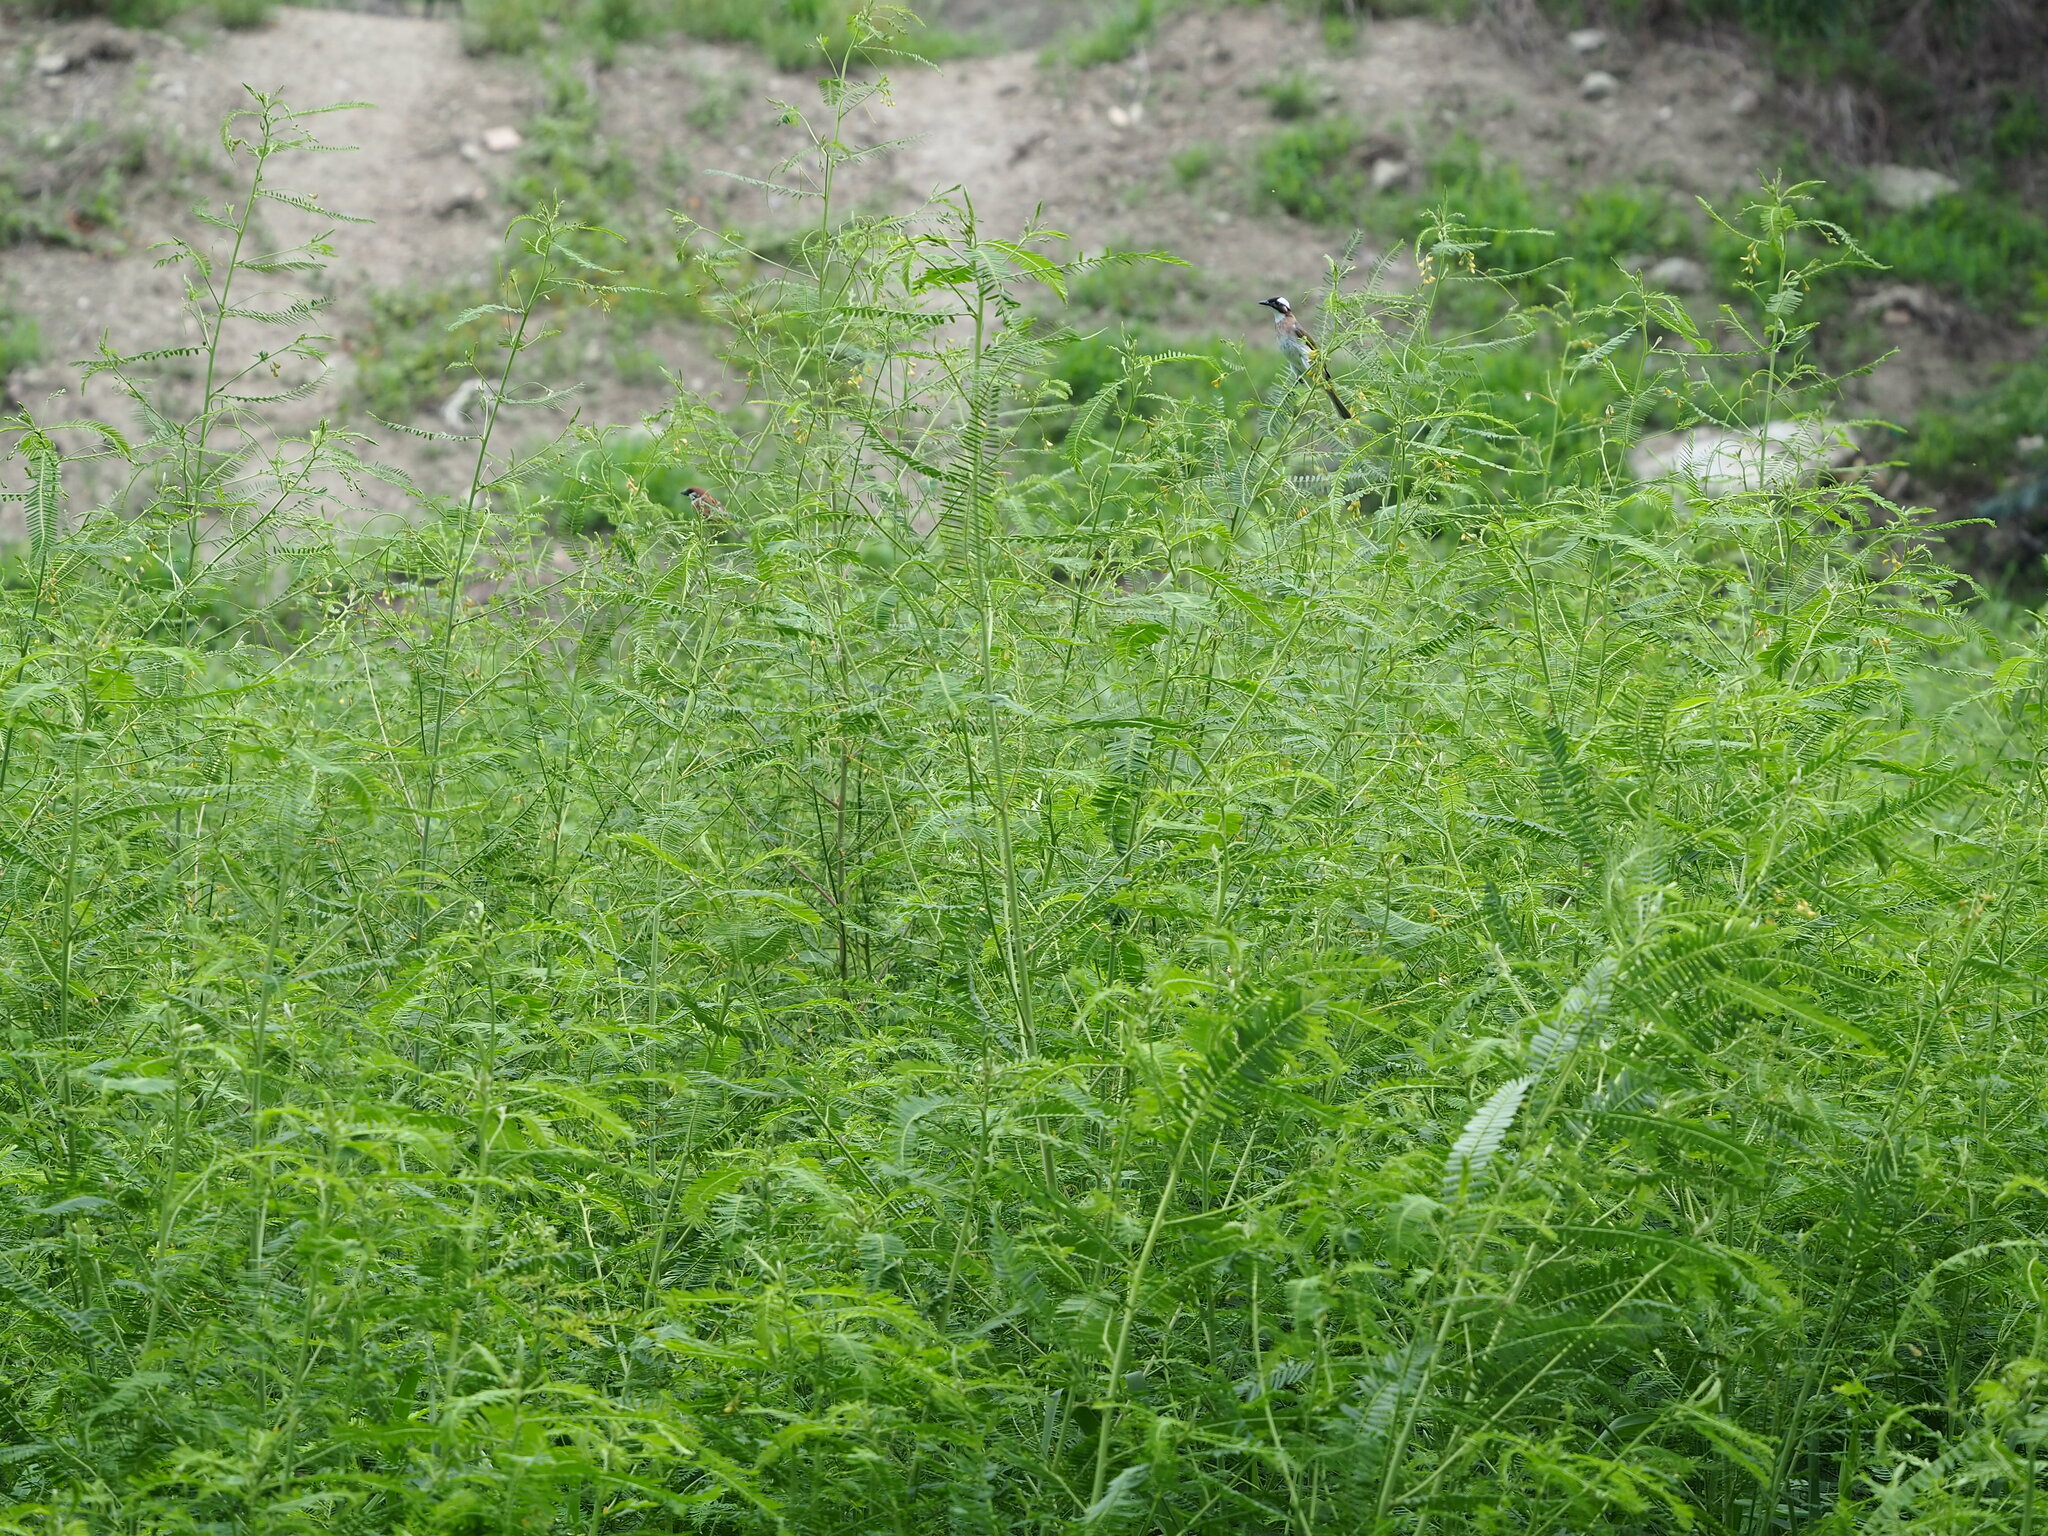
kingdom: Plantae
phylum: Tracheophyta
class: Magnoliopsida
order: Fabales
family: Fabaceae
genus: Sesbania
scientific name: Sesbania cannabina
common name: Canicha
